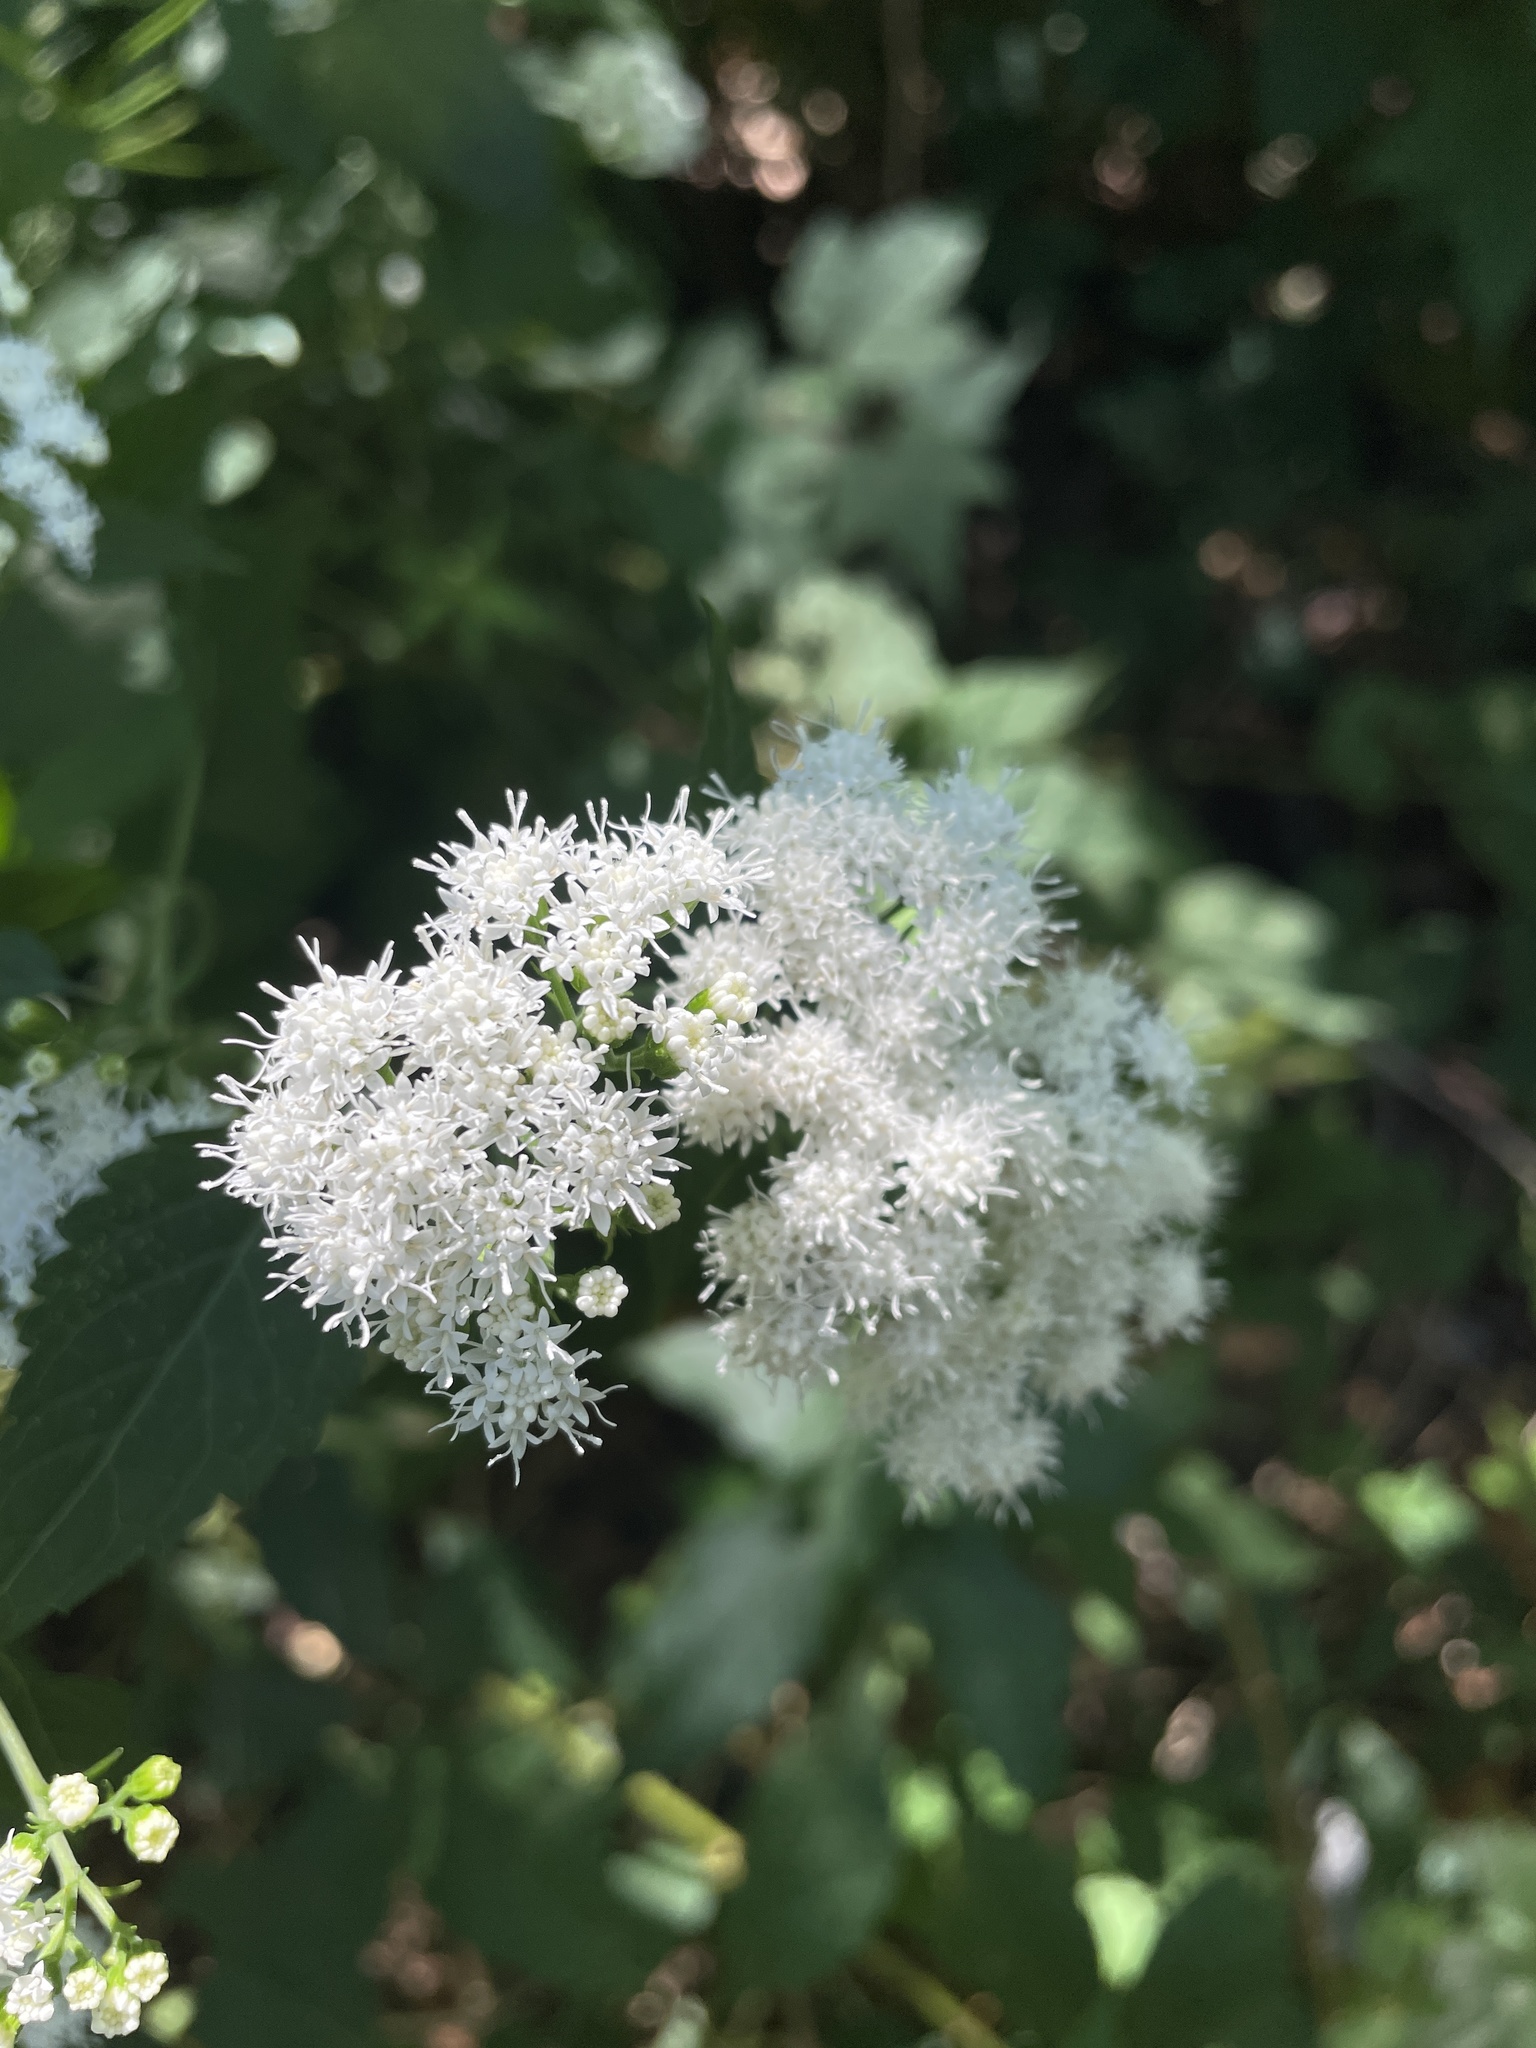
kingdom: Plantae
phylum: Tracheophyta
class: Magnoliopsida
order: Asterales
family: Asteraceae
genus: Ageratina
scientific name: Ageratina altissima
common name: White snakeroot
